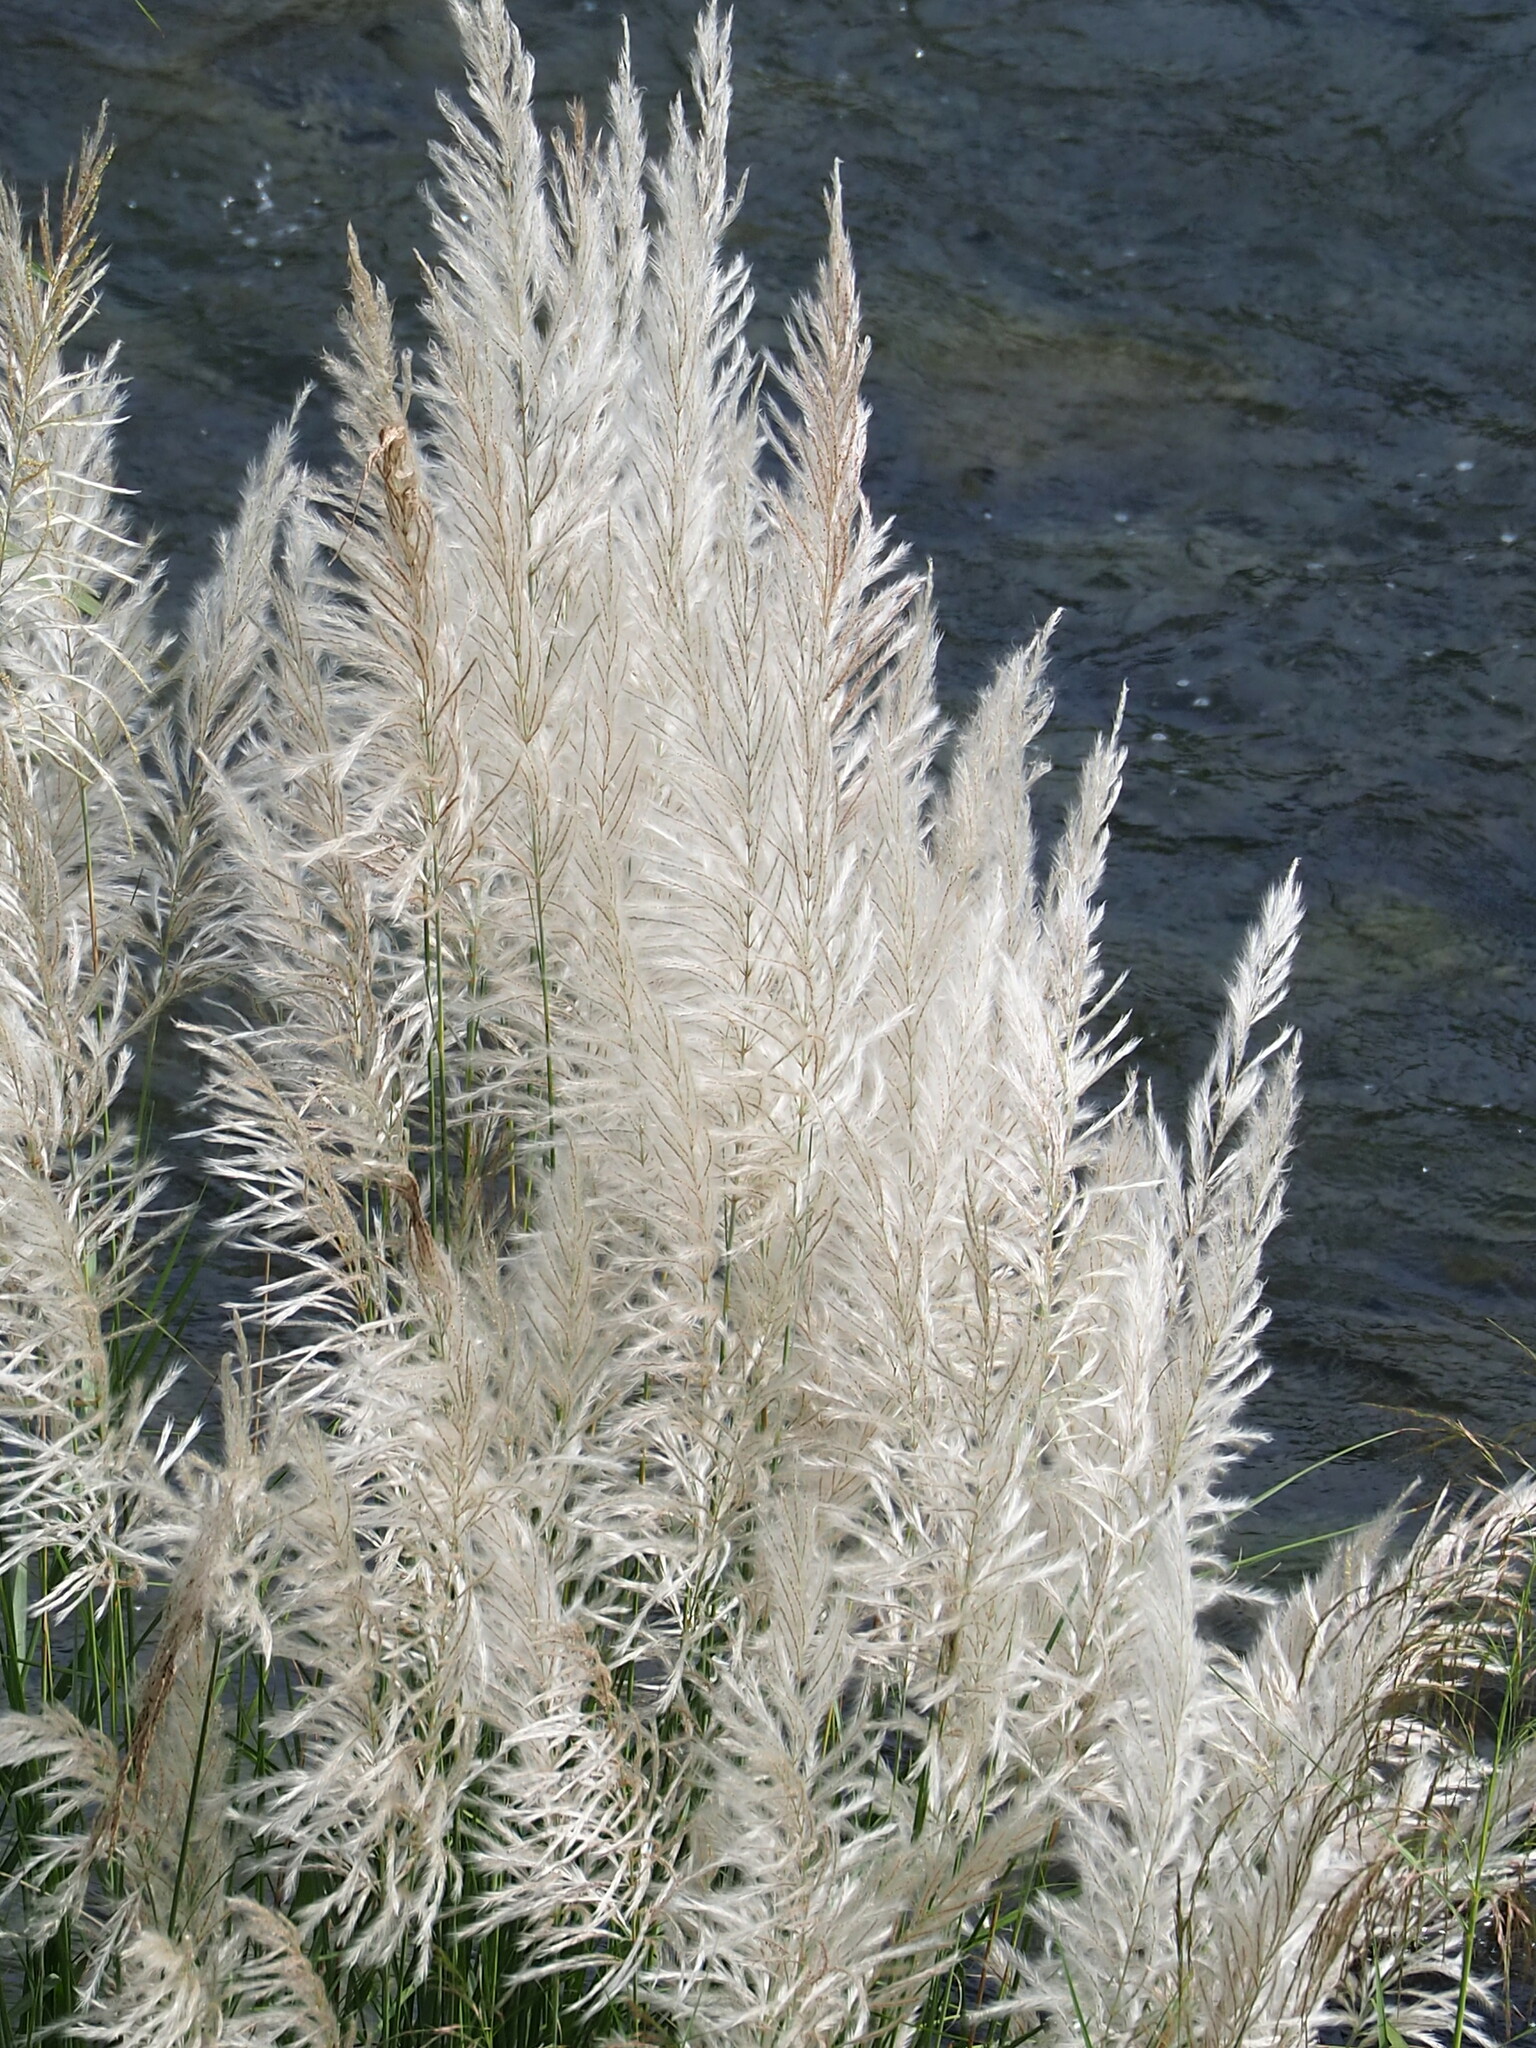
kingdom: Plantae
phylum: Tracheophyta
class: Liliopsida
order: Poales
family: Poaceae
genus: Saccharum
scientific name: Saccharum spontaneum
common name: Wild sugarcane
